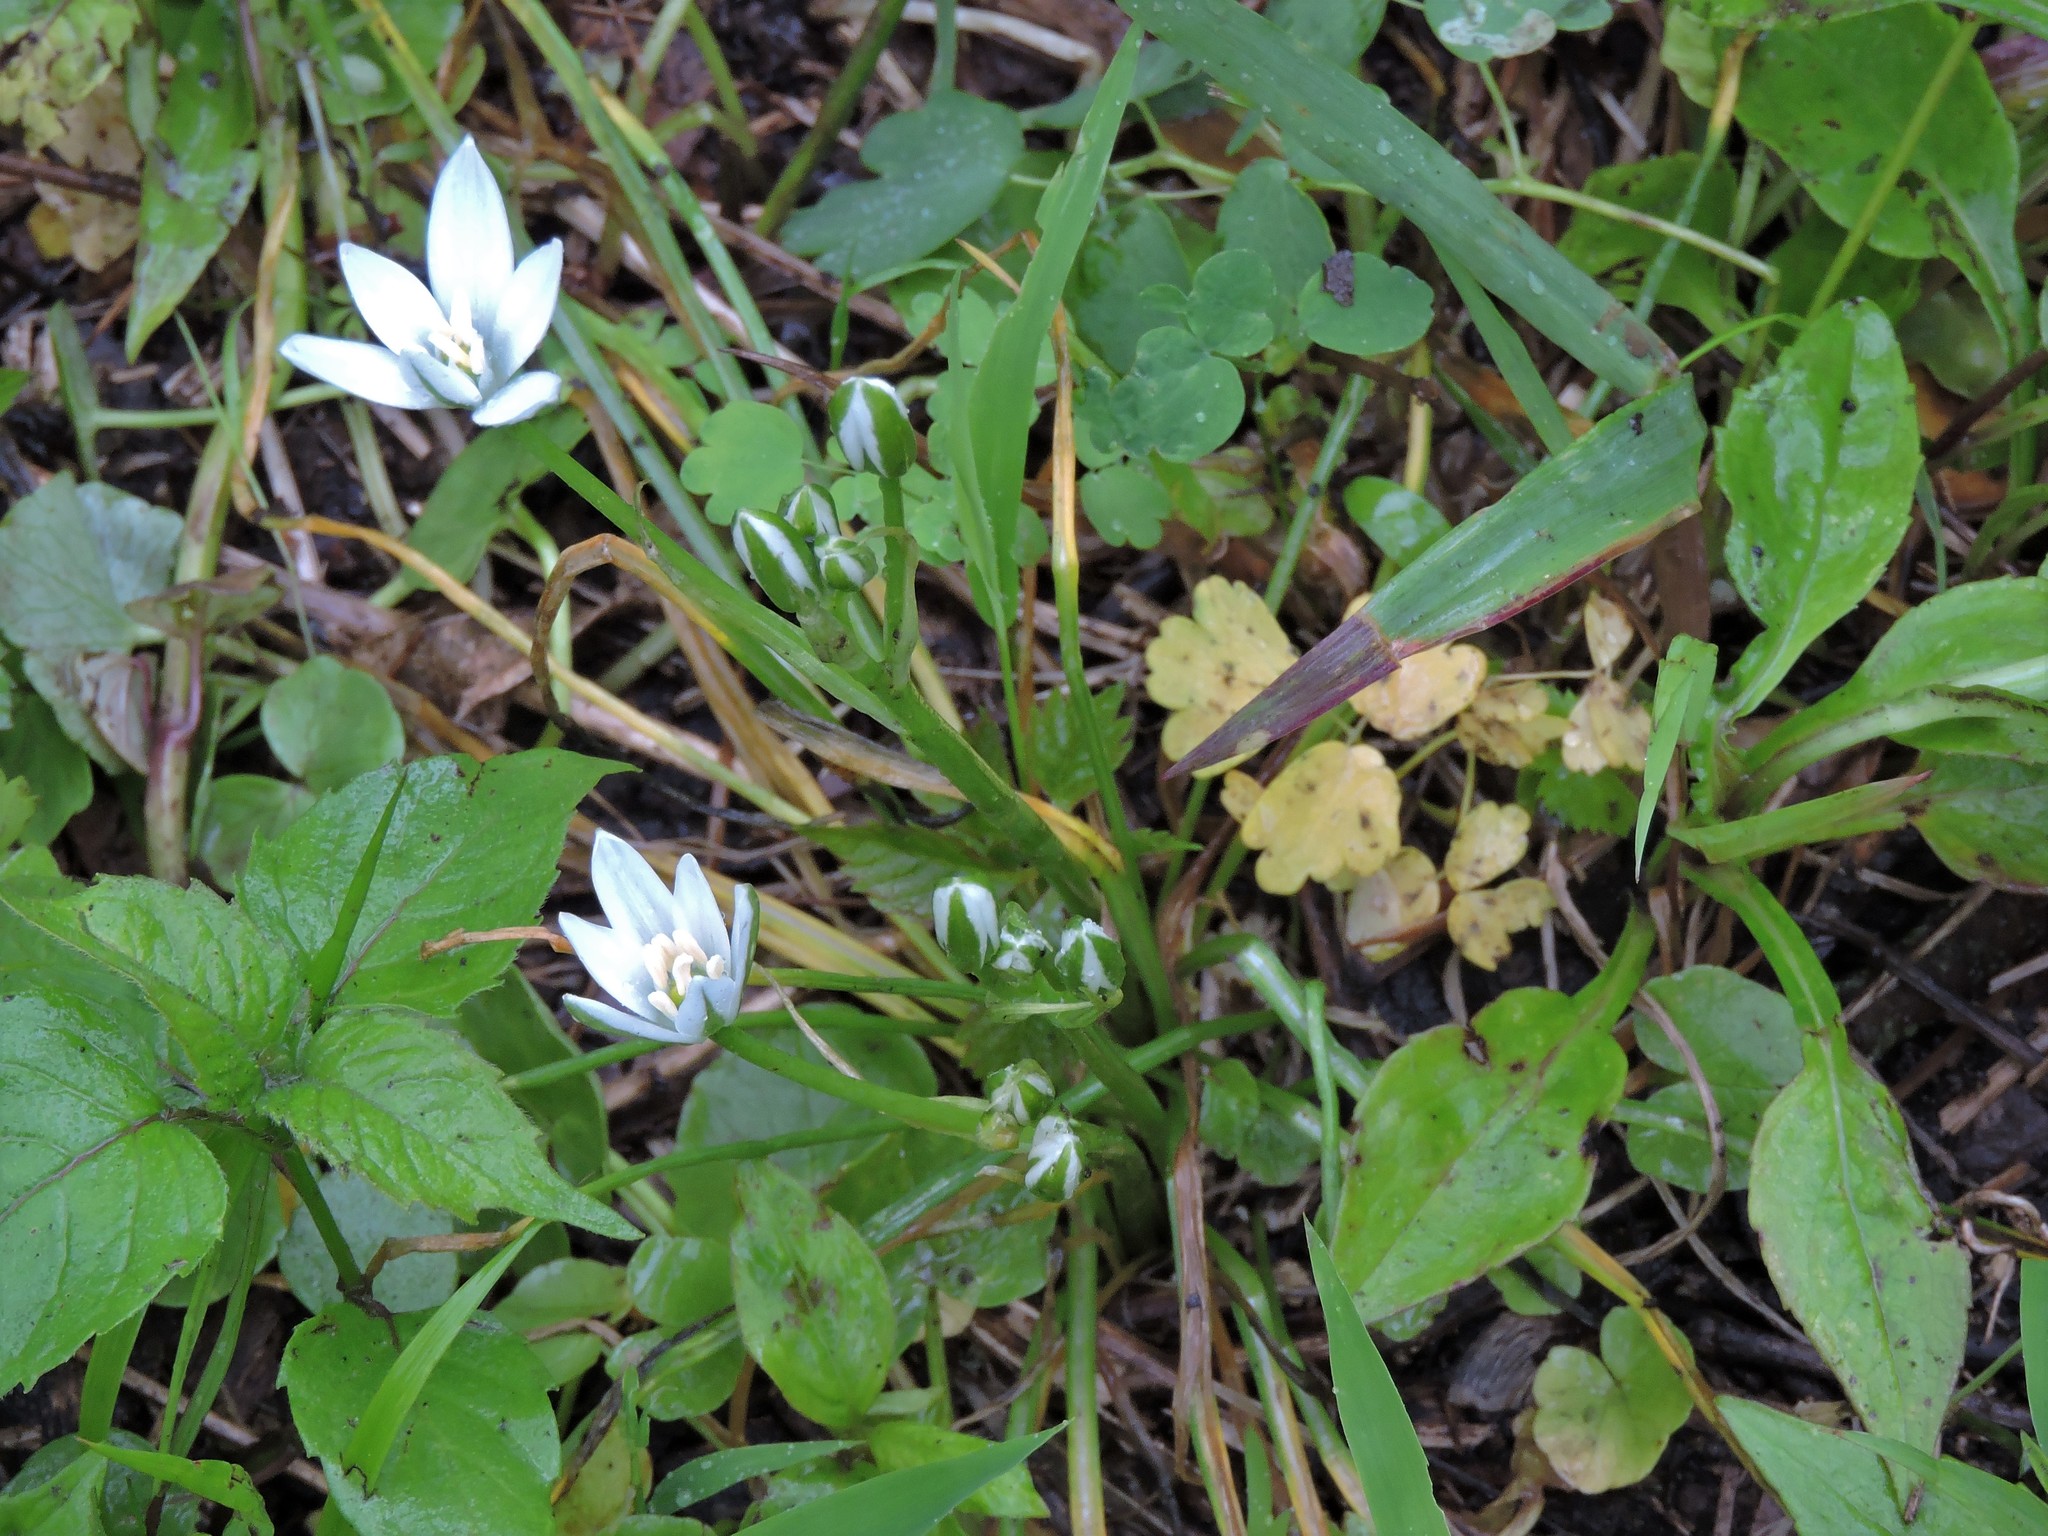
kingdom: Plantae
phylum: Tracheophyta
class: Liliopsida
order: Asparagales
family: Asparagaceae
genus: Ornithogalum
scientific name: Ornithogalum umbellatum
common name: Garden star-of-bethlehem
